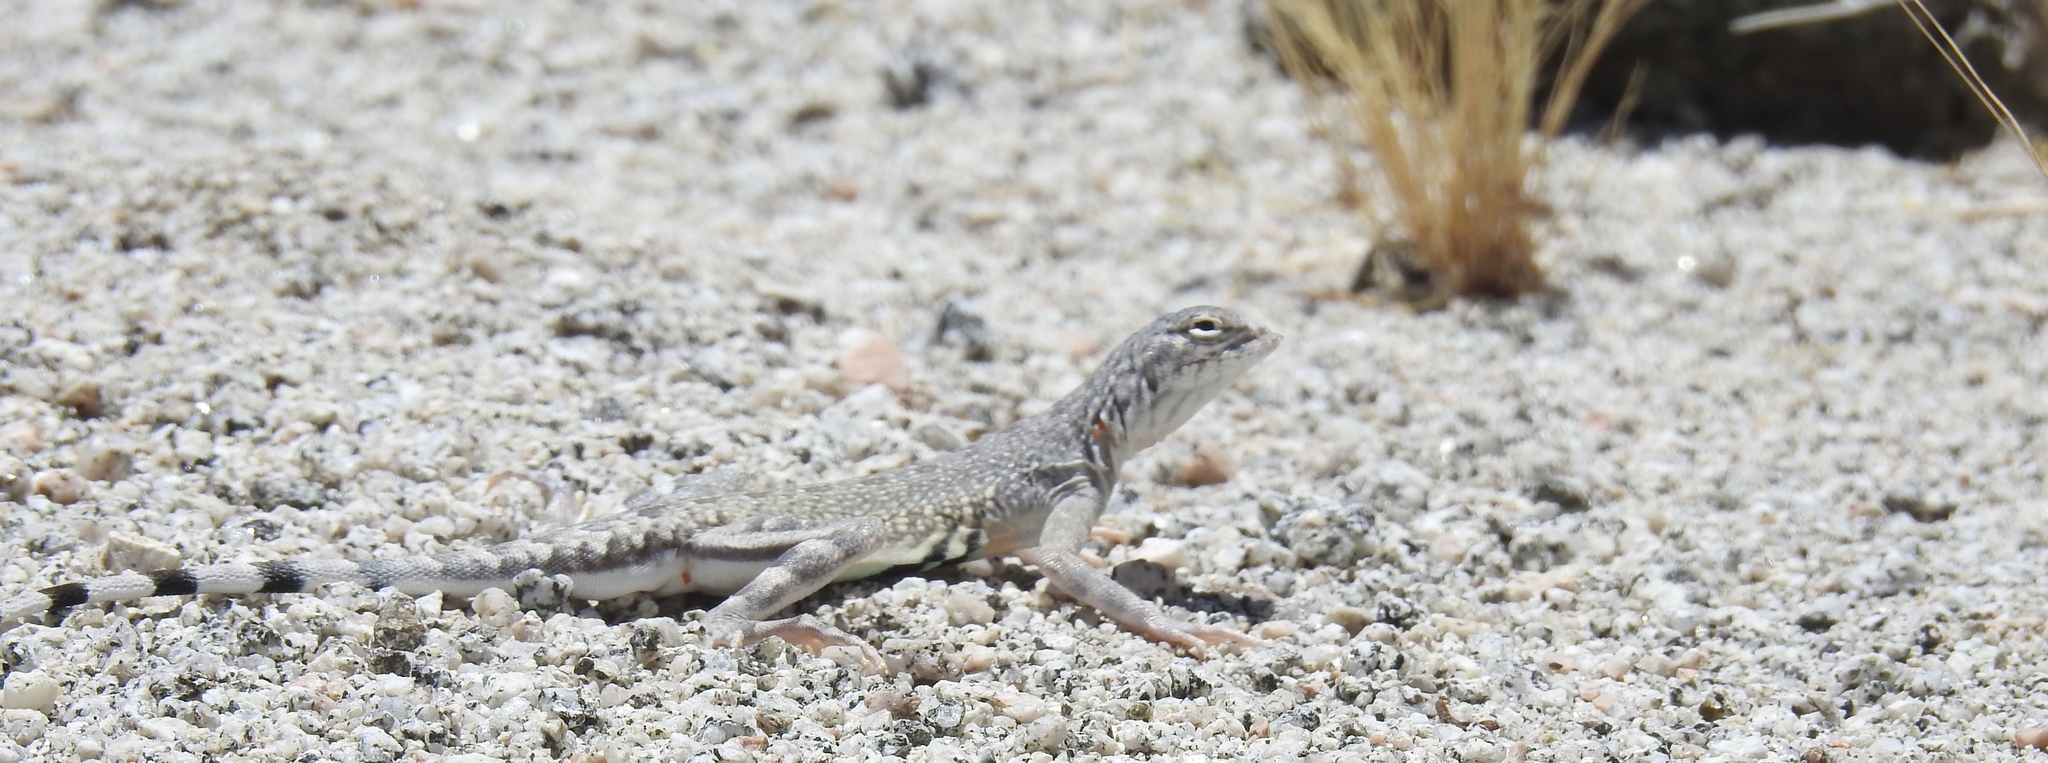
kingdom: Animalia
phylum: Chordata
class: Squamata
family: Phrynosomatidae
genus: Callisaurus
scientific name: Callisaurus draconoides
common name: Zebra-tailed lizard
